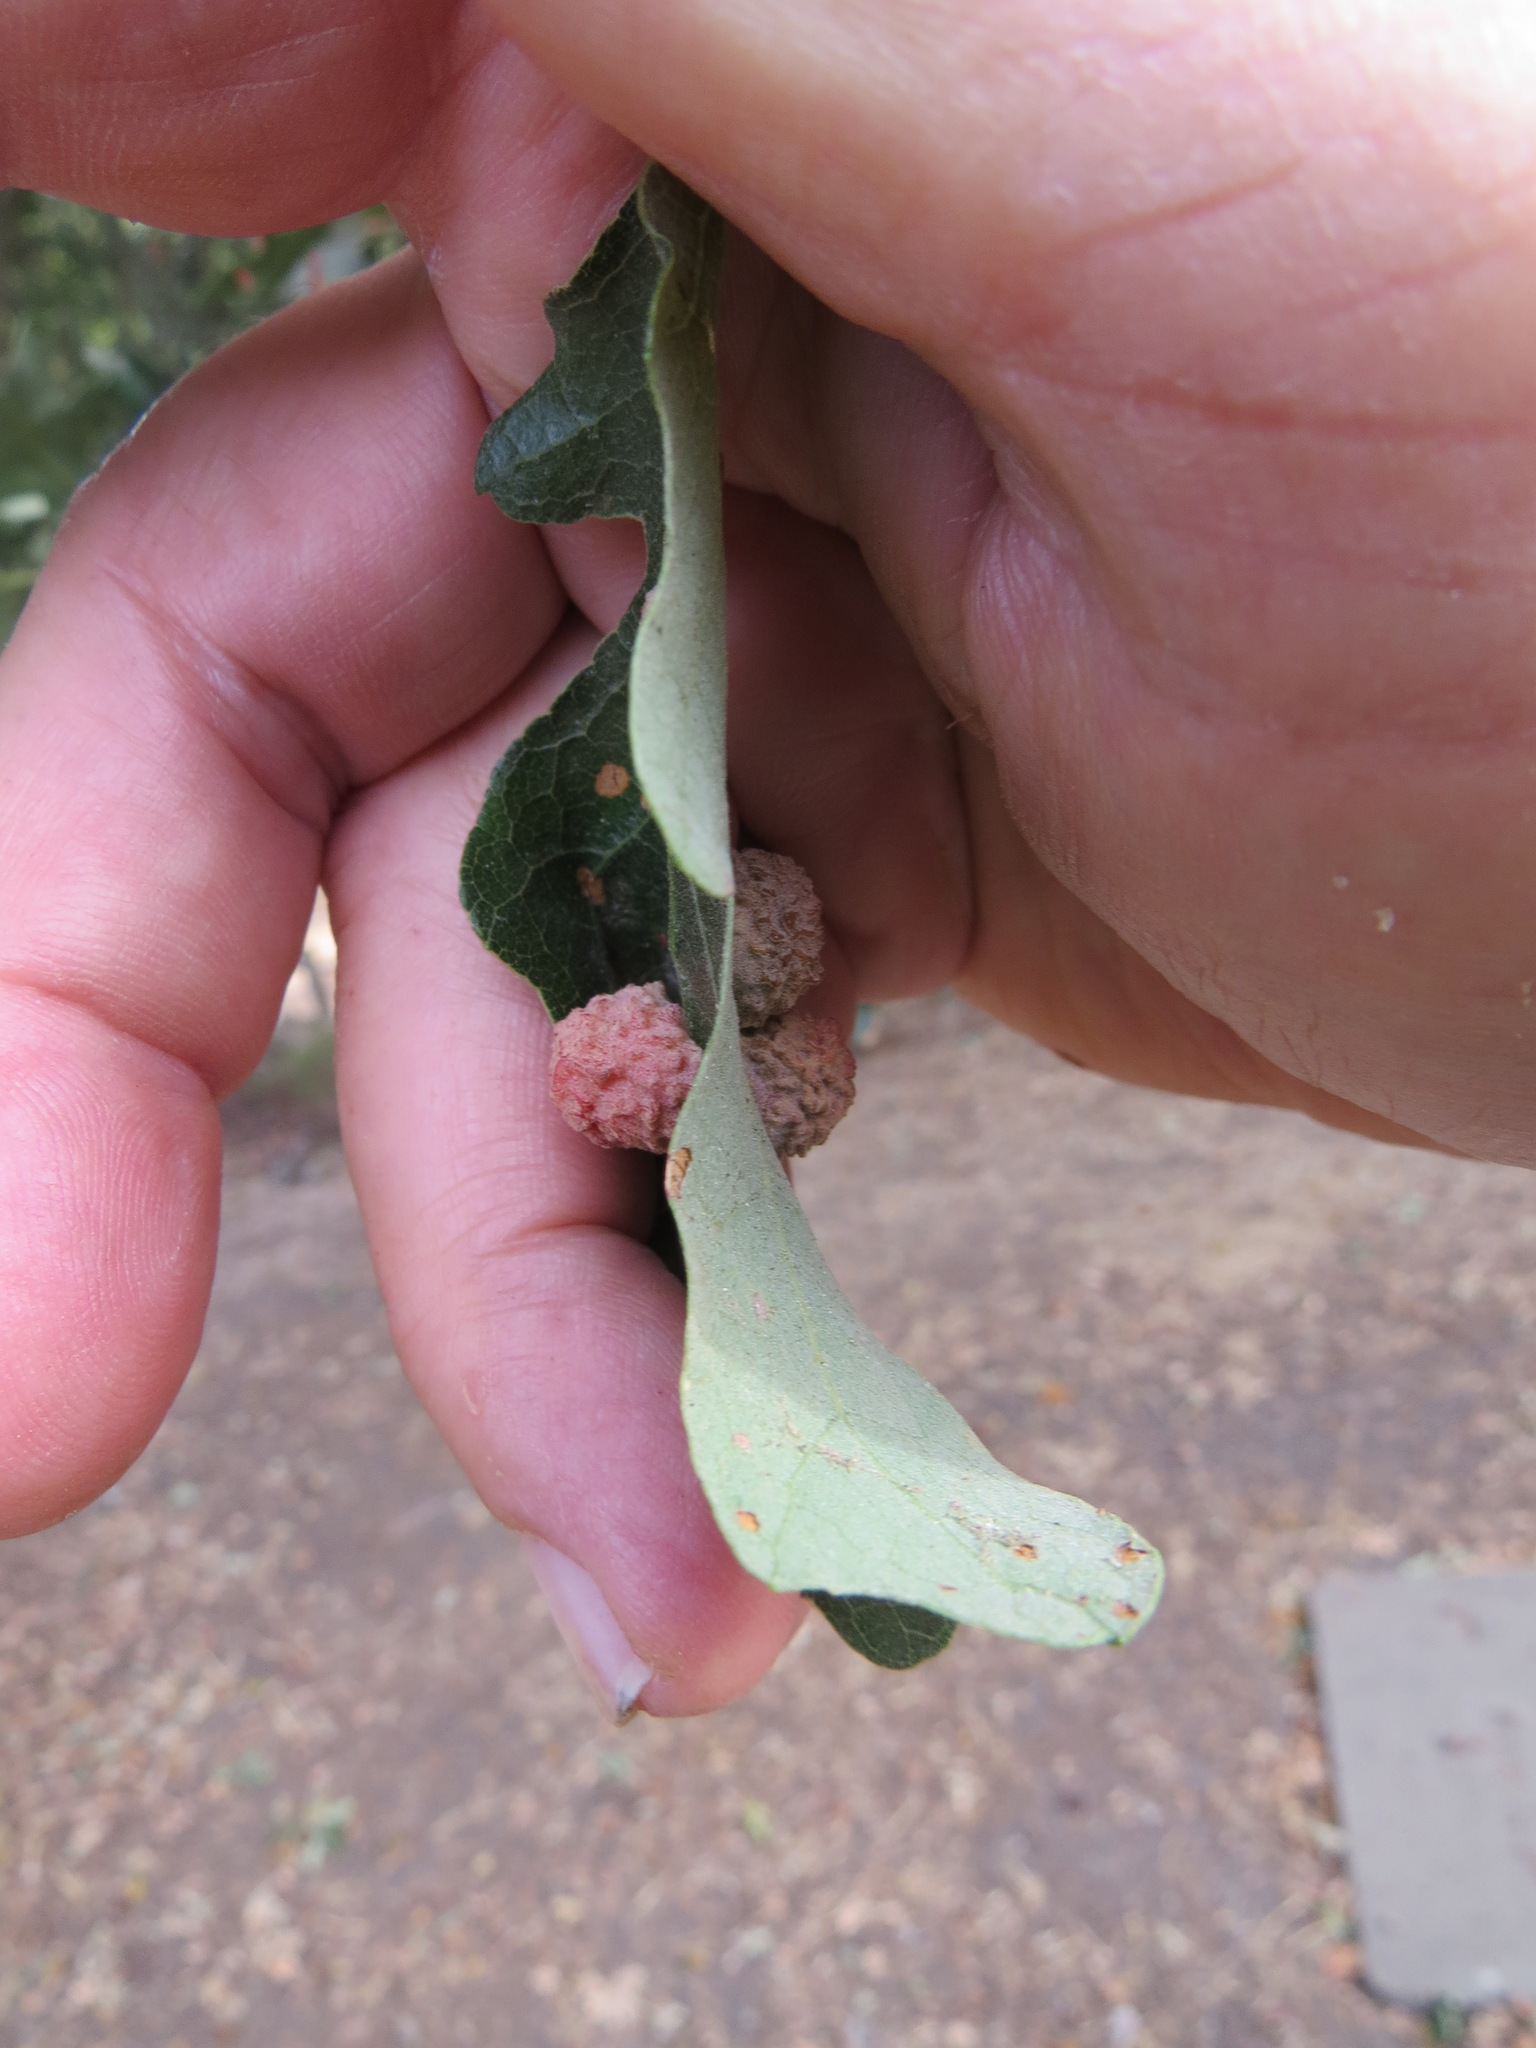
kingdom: Animalia
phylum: Arthropoda
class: Insecta
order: Hymenoptera
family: Cynipidae
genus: Cynips
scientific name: Cynips conspicua
